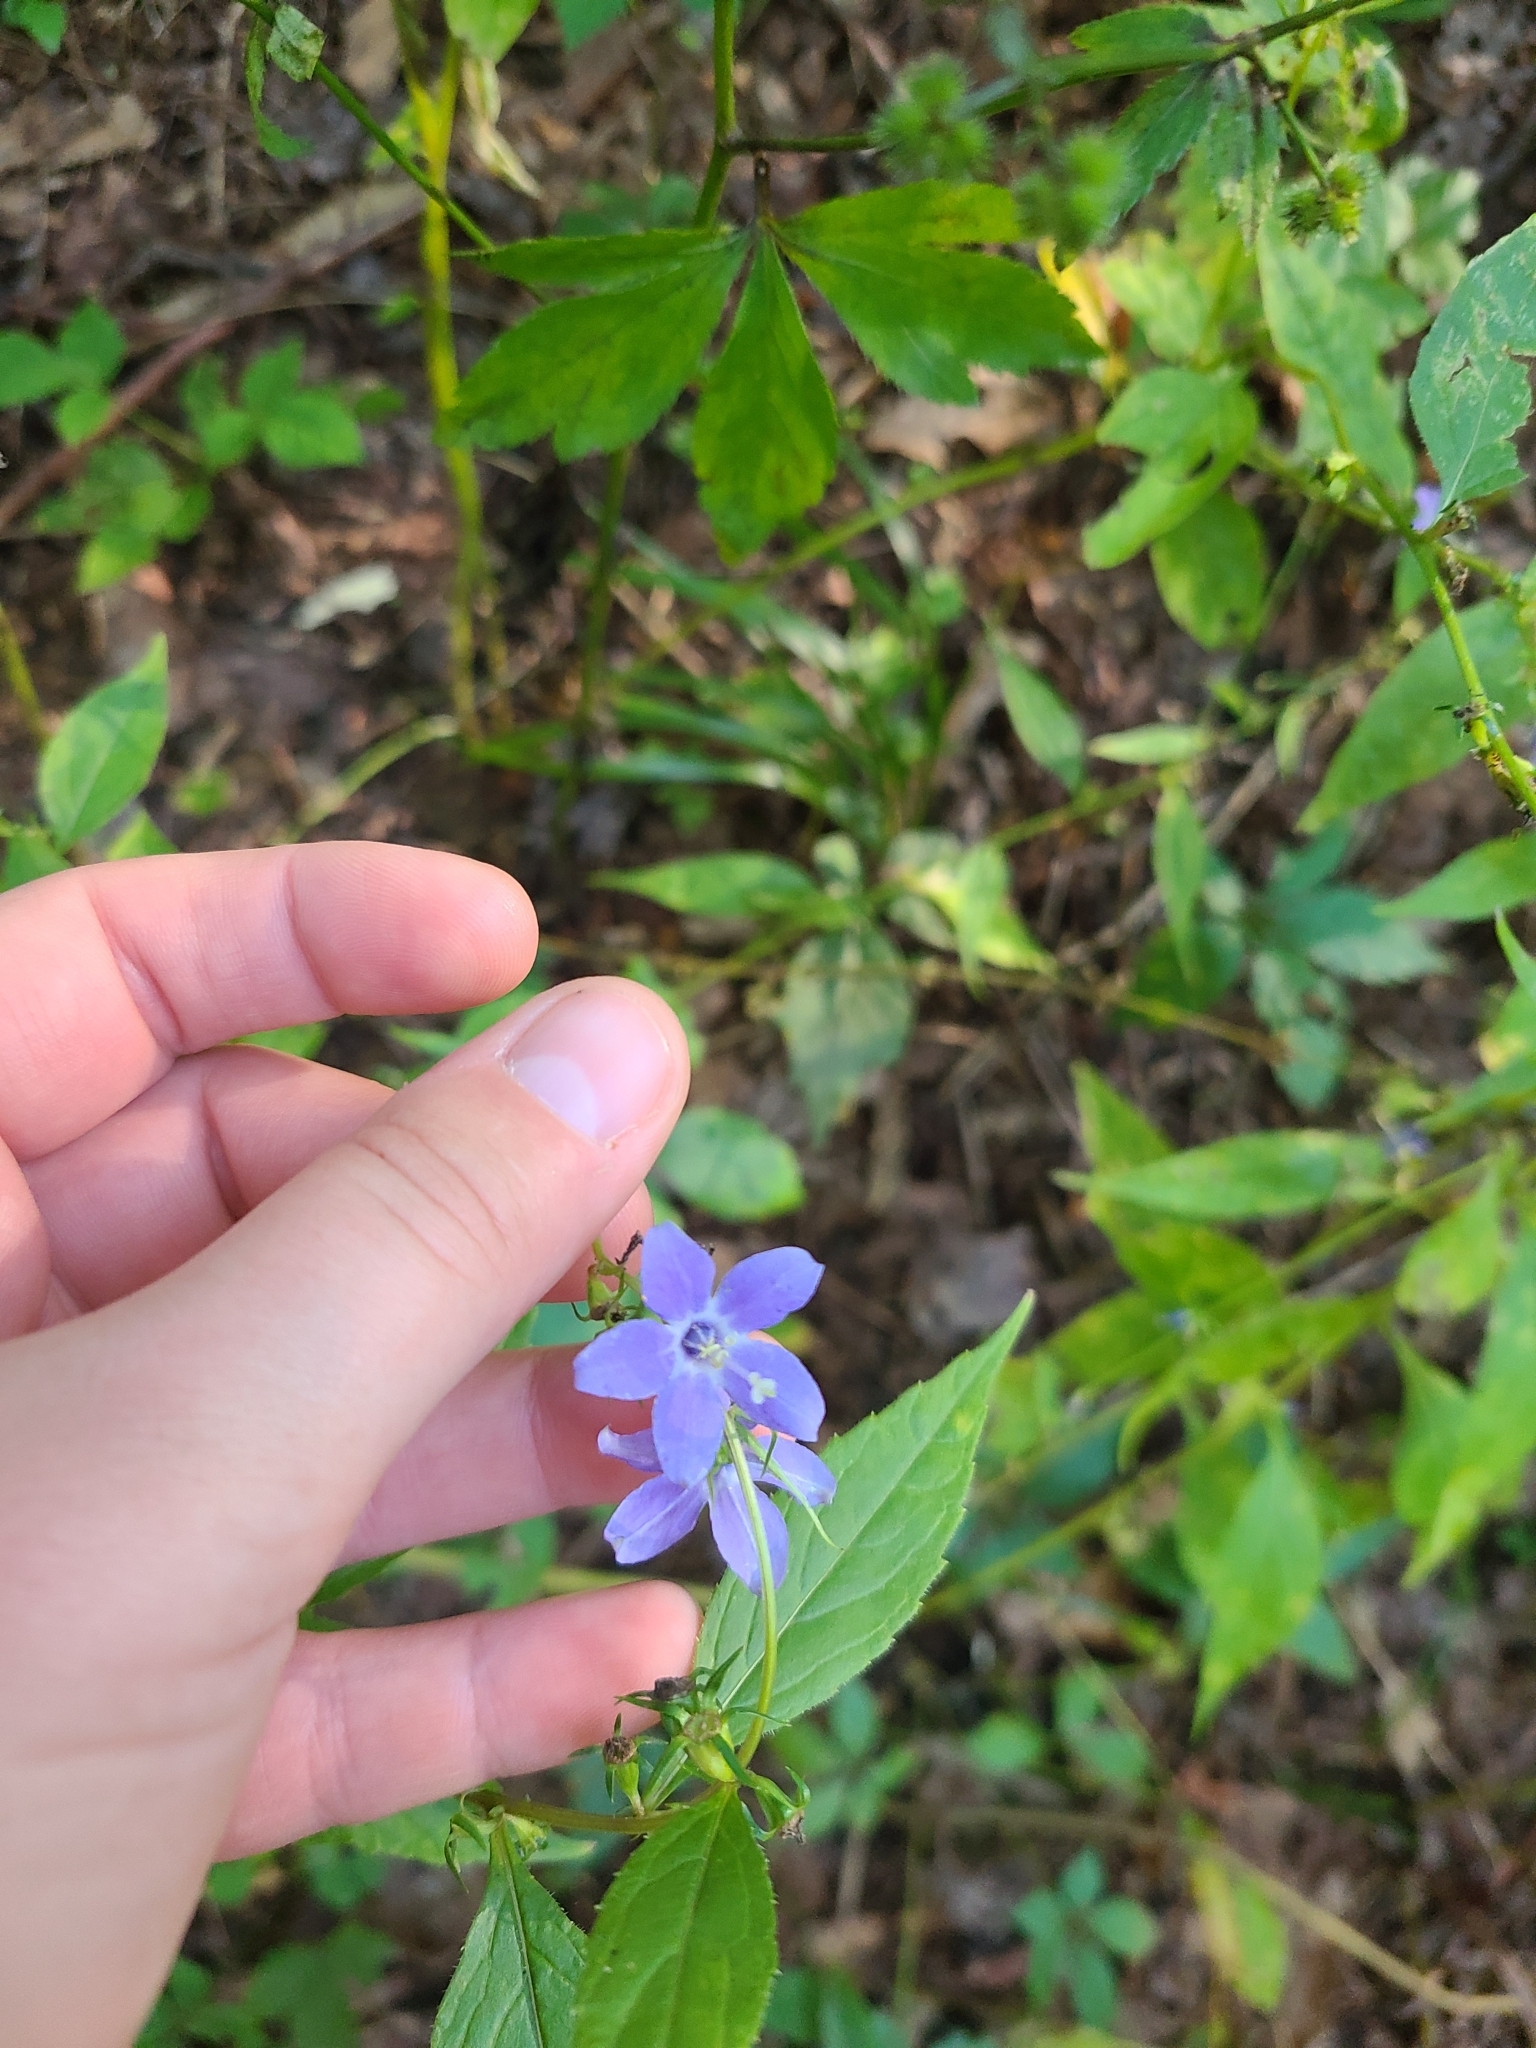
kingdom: Plantae
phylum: Tracheophyta
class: Magnoliopsida
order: Asterales
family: Campanulaceae
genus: Campanulastrum
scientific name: Campanulastrum americanum
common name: American bellflower
